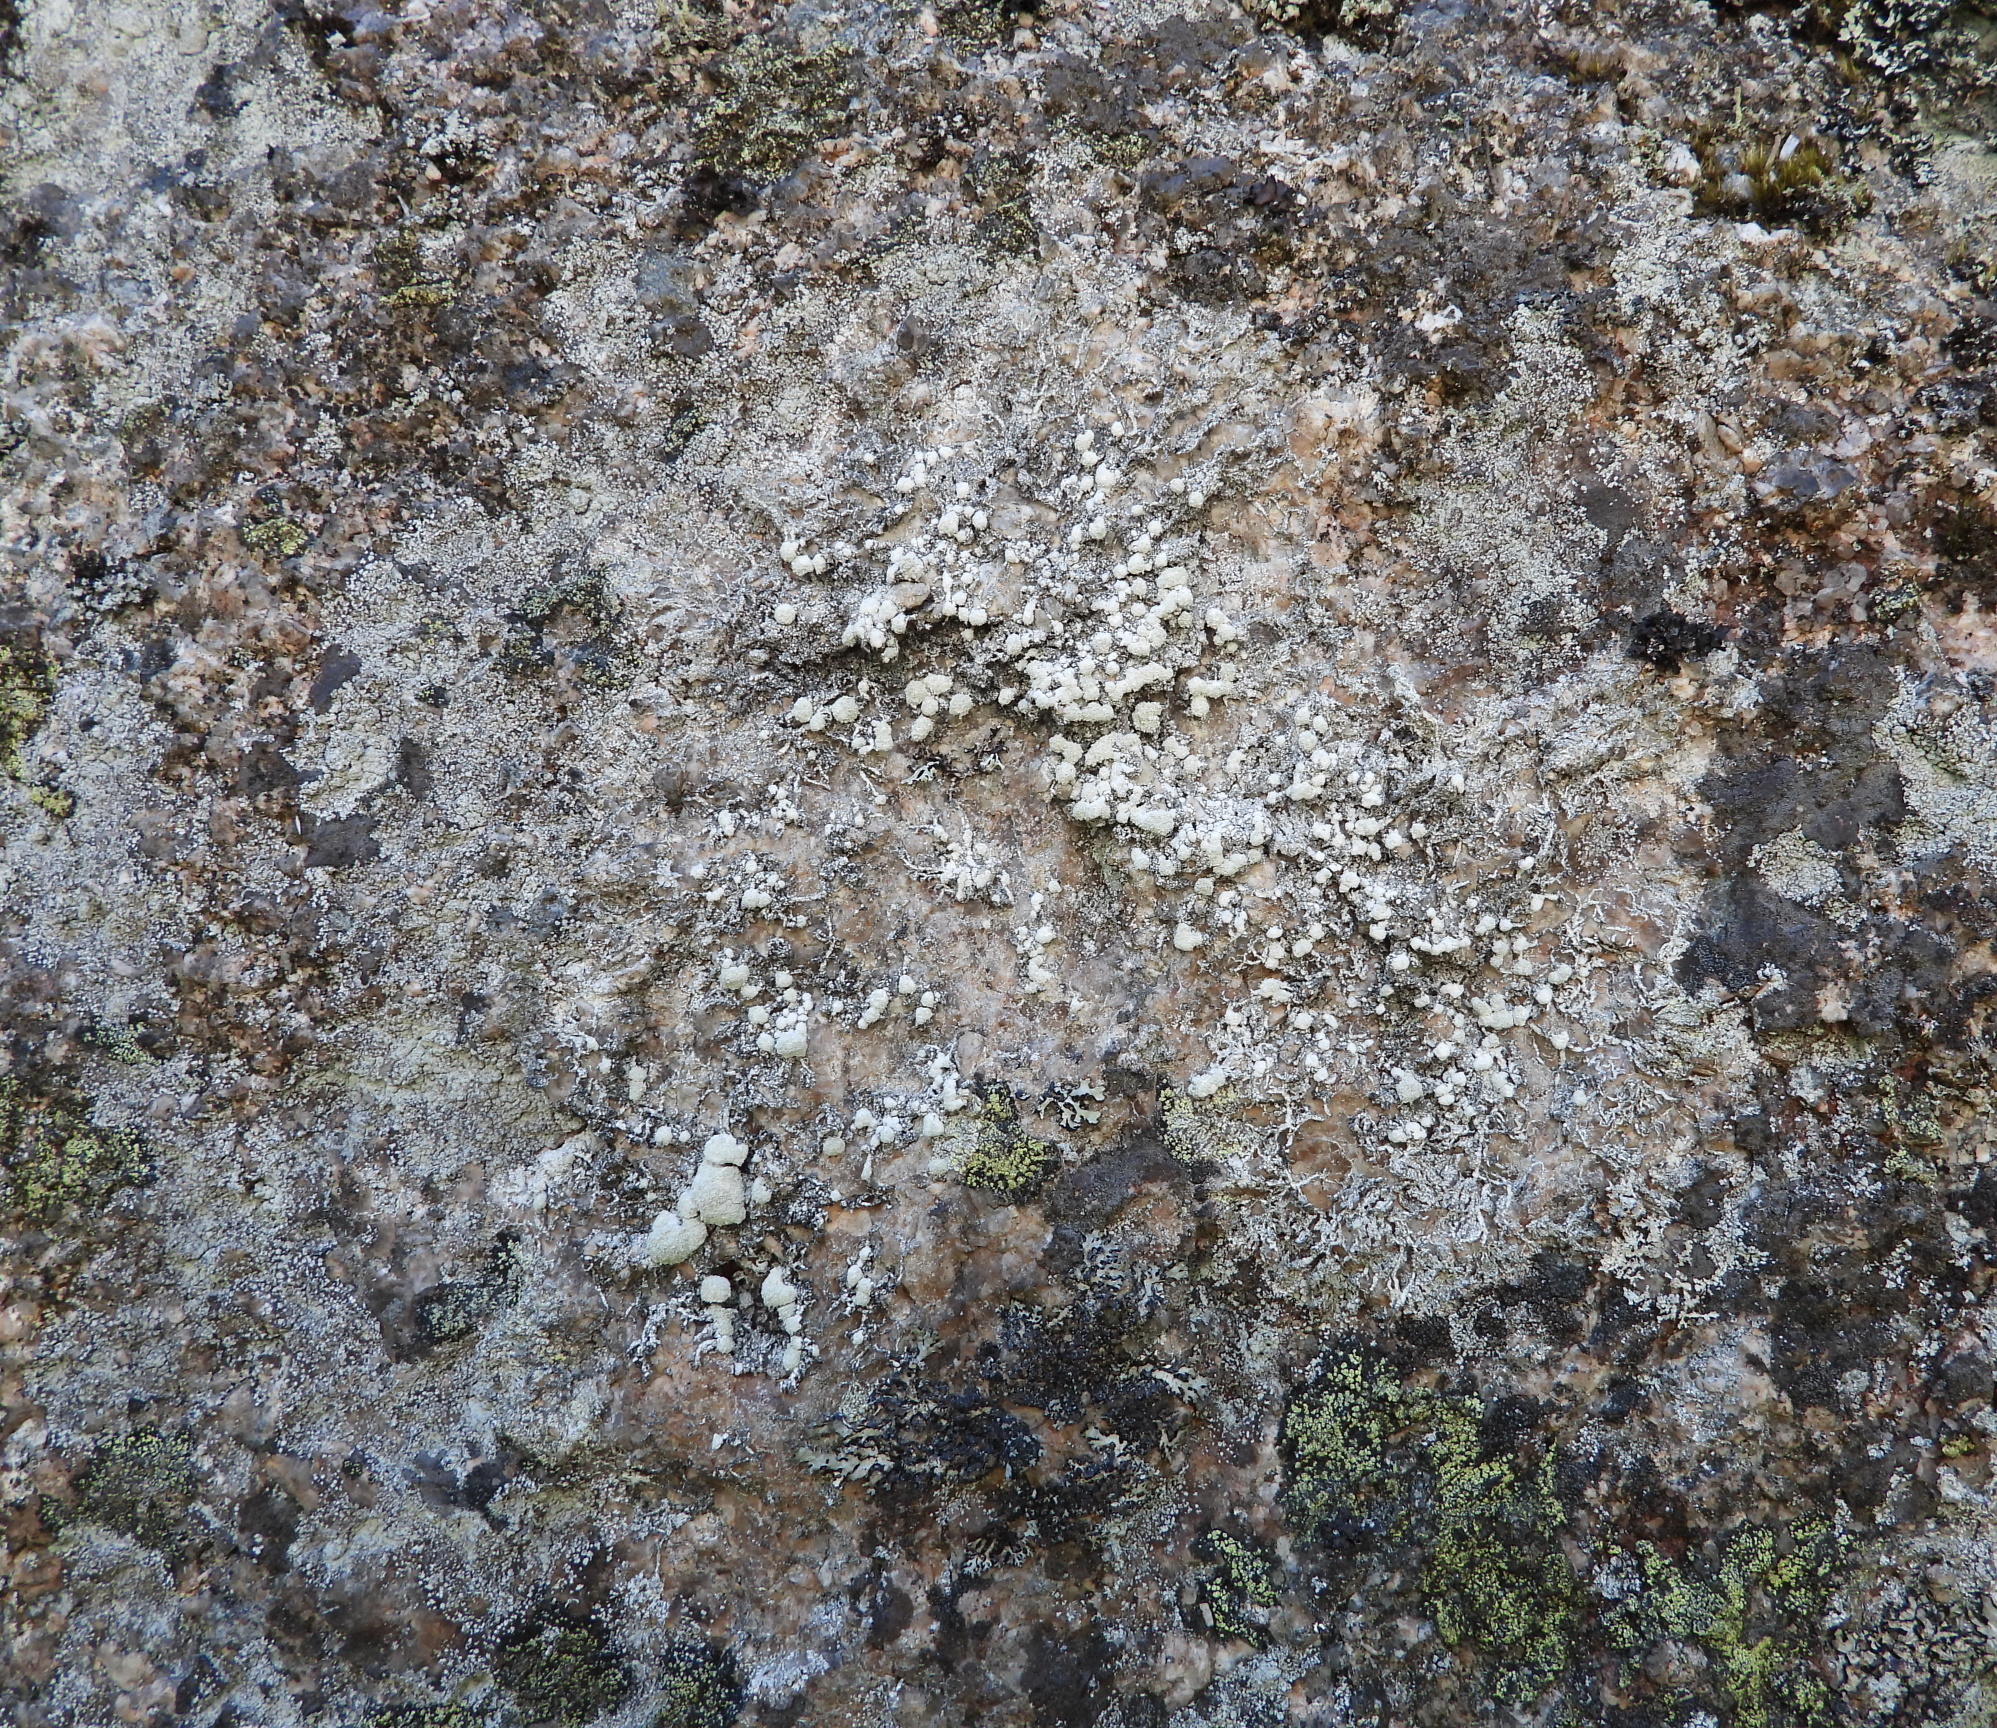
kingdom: Fungi
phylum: Ascomycota
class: Lecanoromycetes
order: Pertusariales
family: Pertusariaceae
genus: Lepra
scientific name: Lepra albescens
